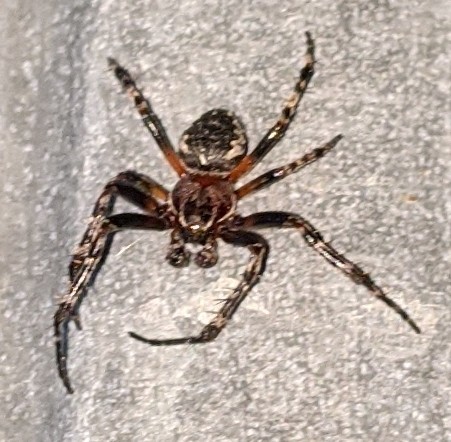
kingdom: Animalia
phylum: Arthropoda
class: Arachnida
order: Araneae
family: Araneidae
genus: Larinioides
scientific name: Larinioides patagiatus
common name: Ornamental orbweaver
